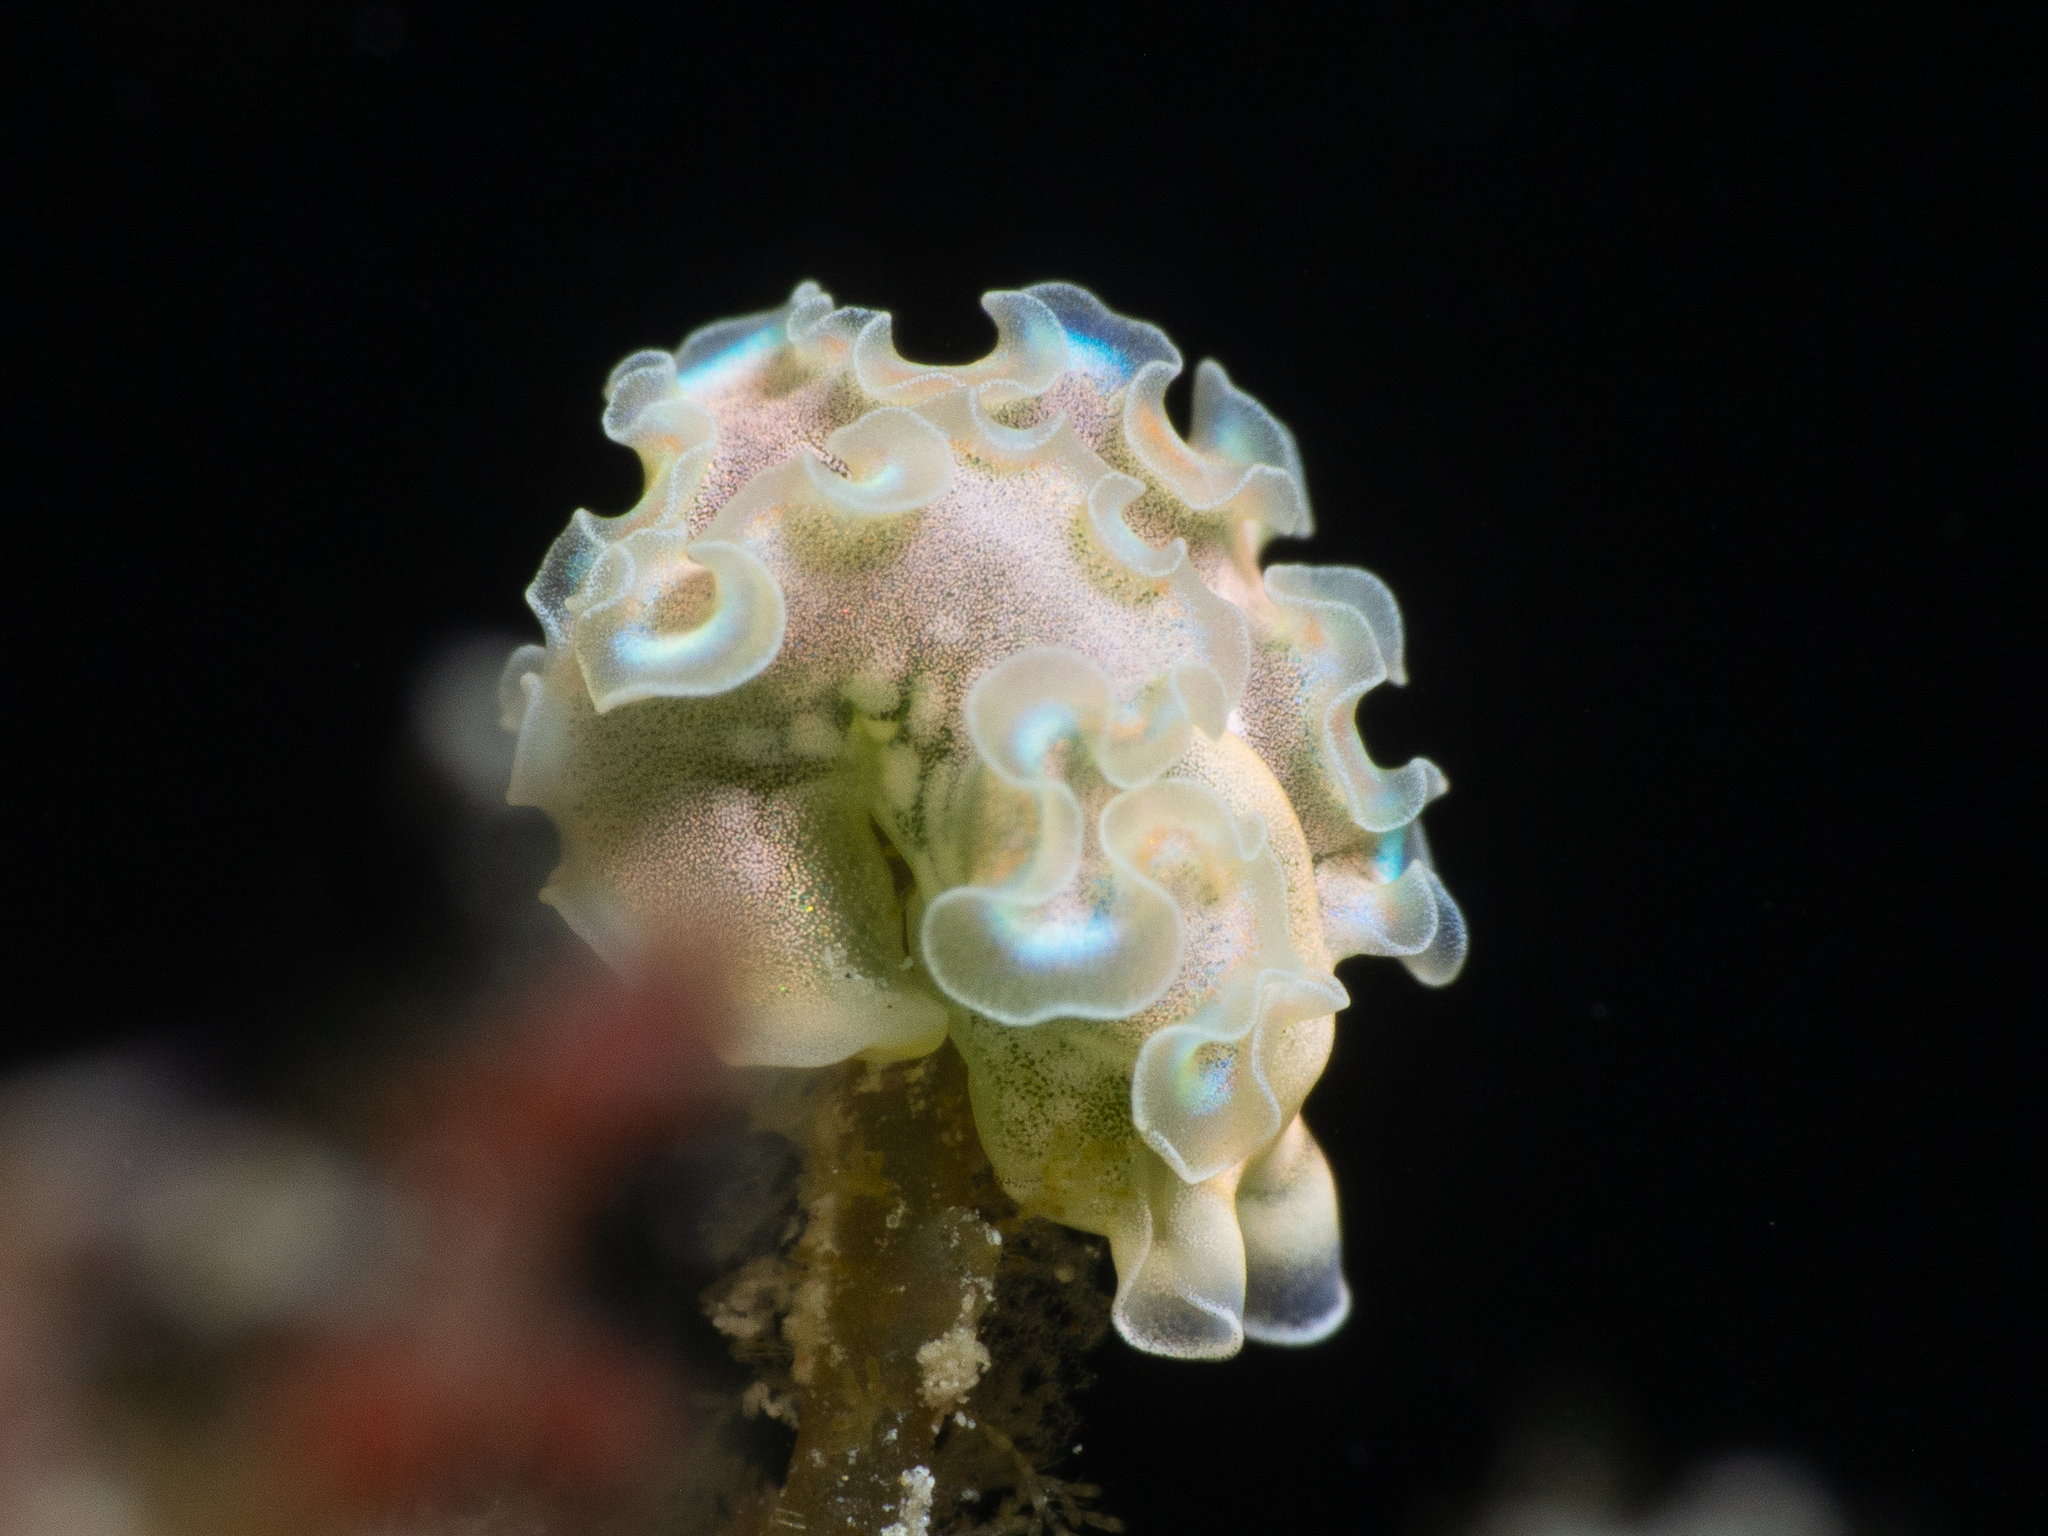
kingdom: Animalia
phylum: Mollusca
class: Gastropoda
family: Plakobranchidae
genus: Elysia
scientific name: Elysia crispata
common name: Lettuce slug
